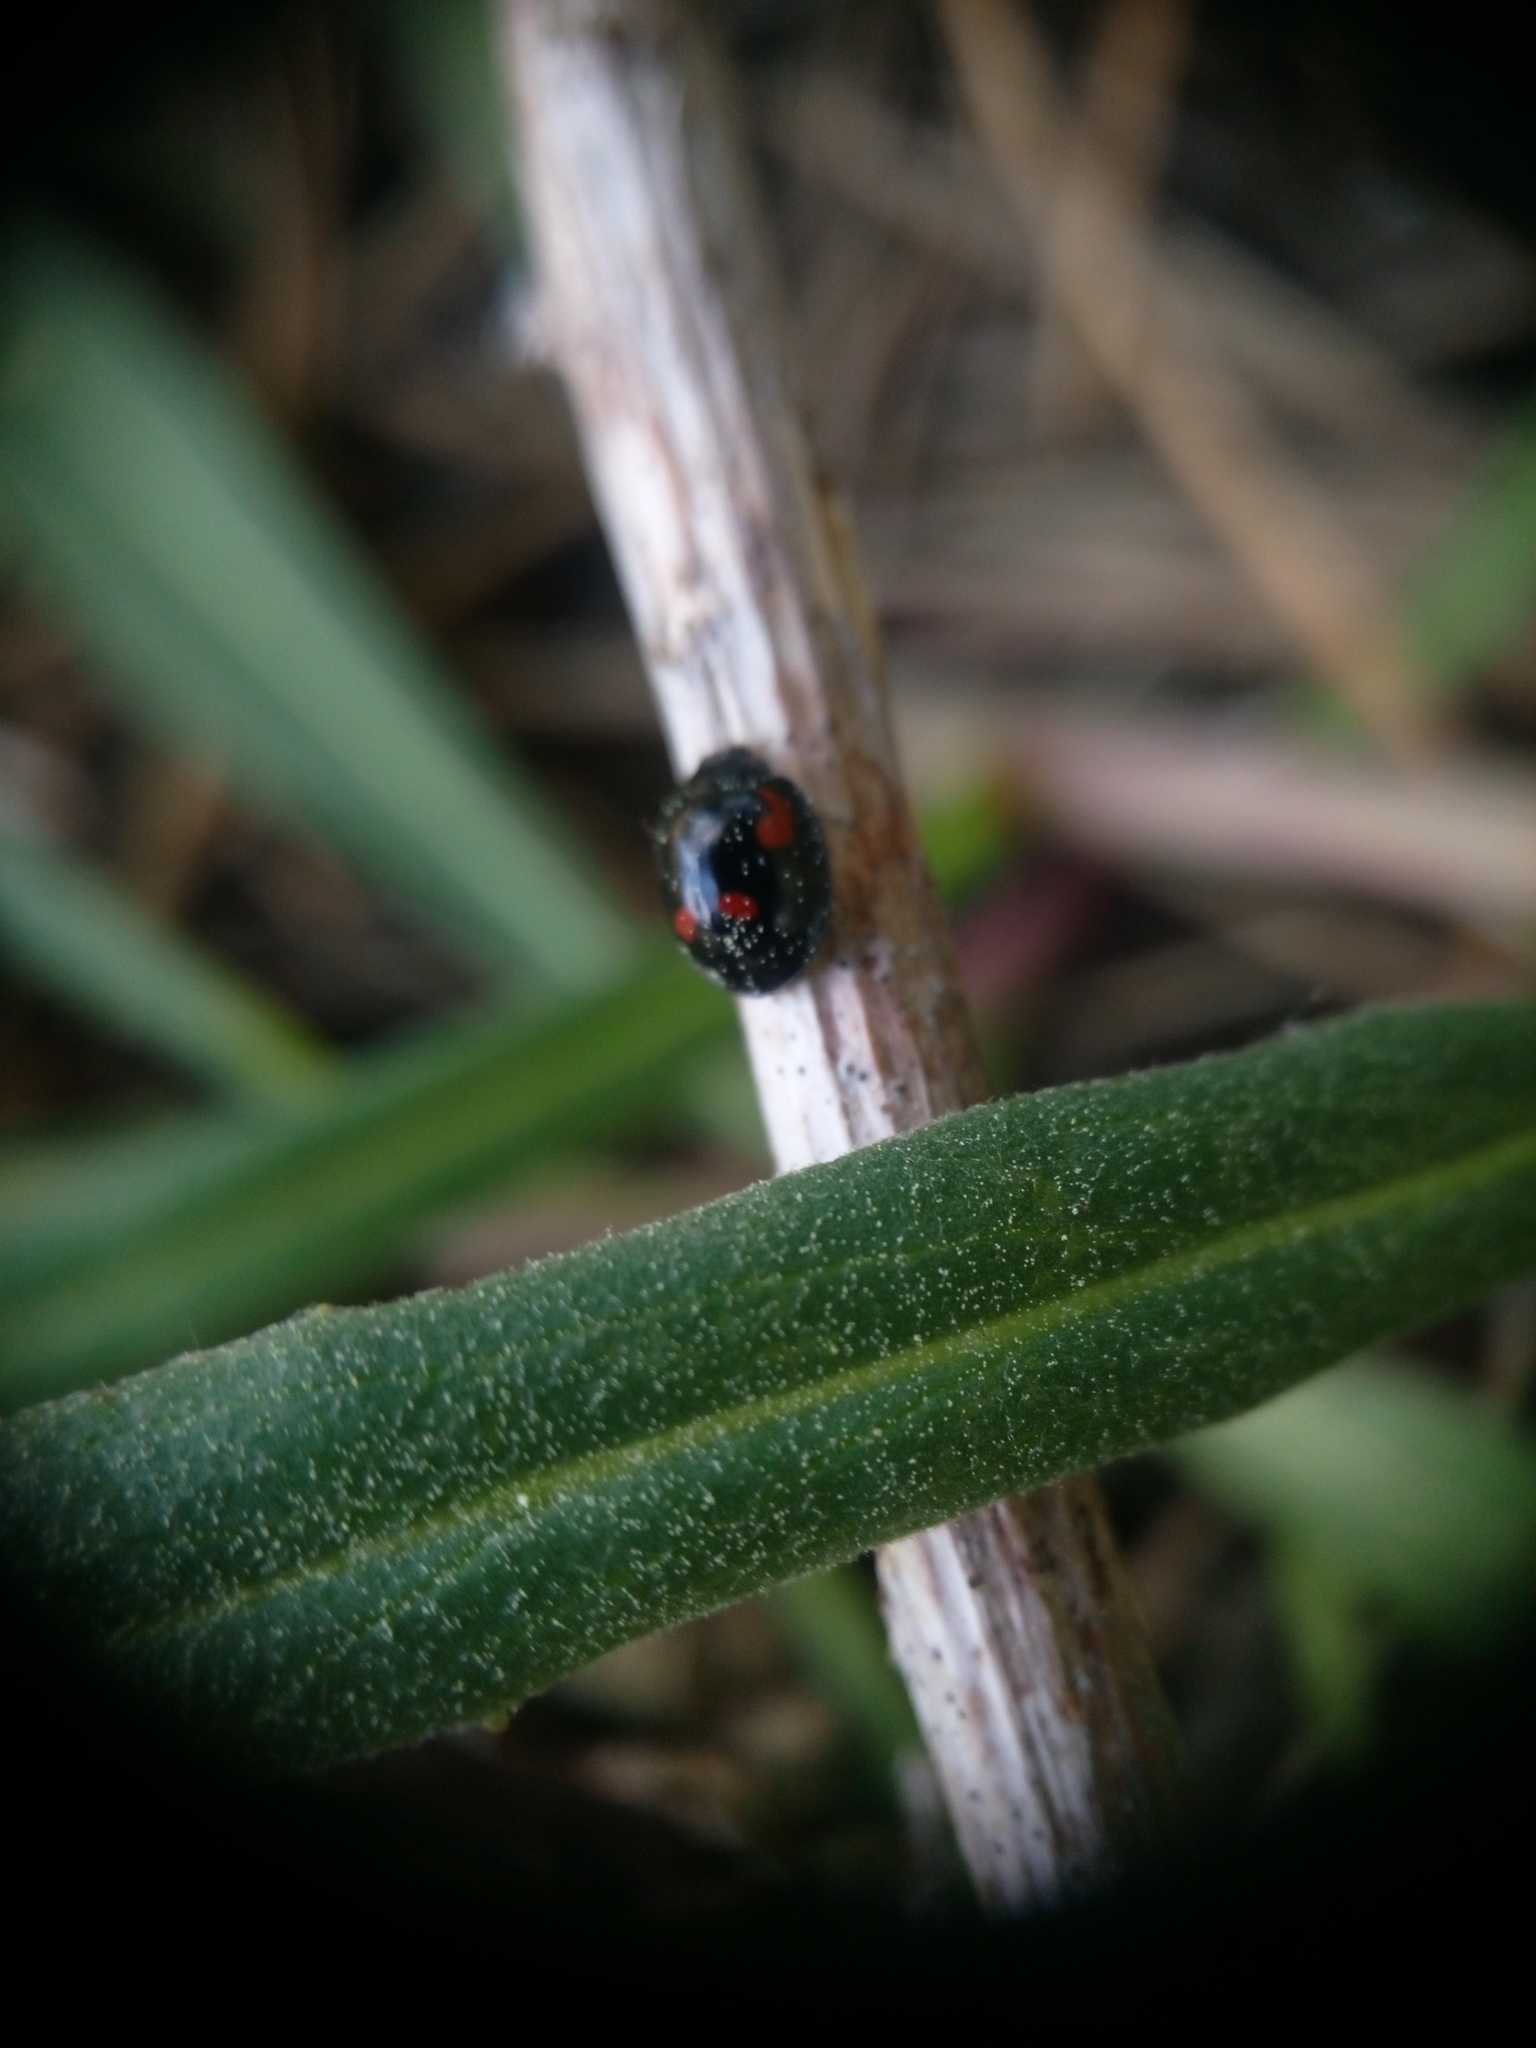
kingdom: Animalia
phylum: Arthropoda
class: Insecta
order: Coleoptera
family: Coccinellidae
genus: Brumus
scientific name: Brumus quadripustulatus
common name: Ladybird beetle
